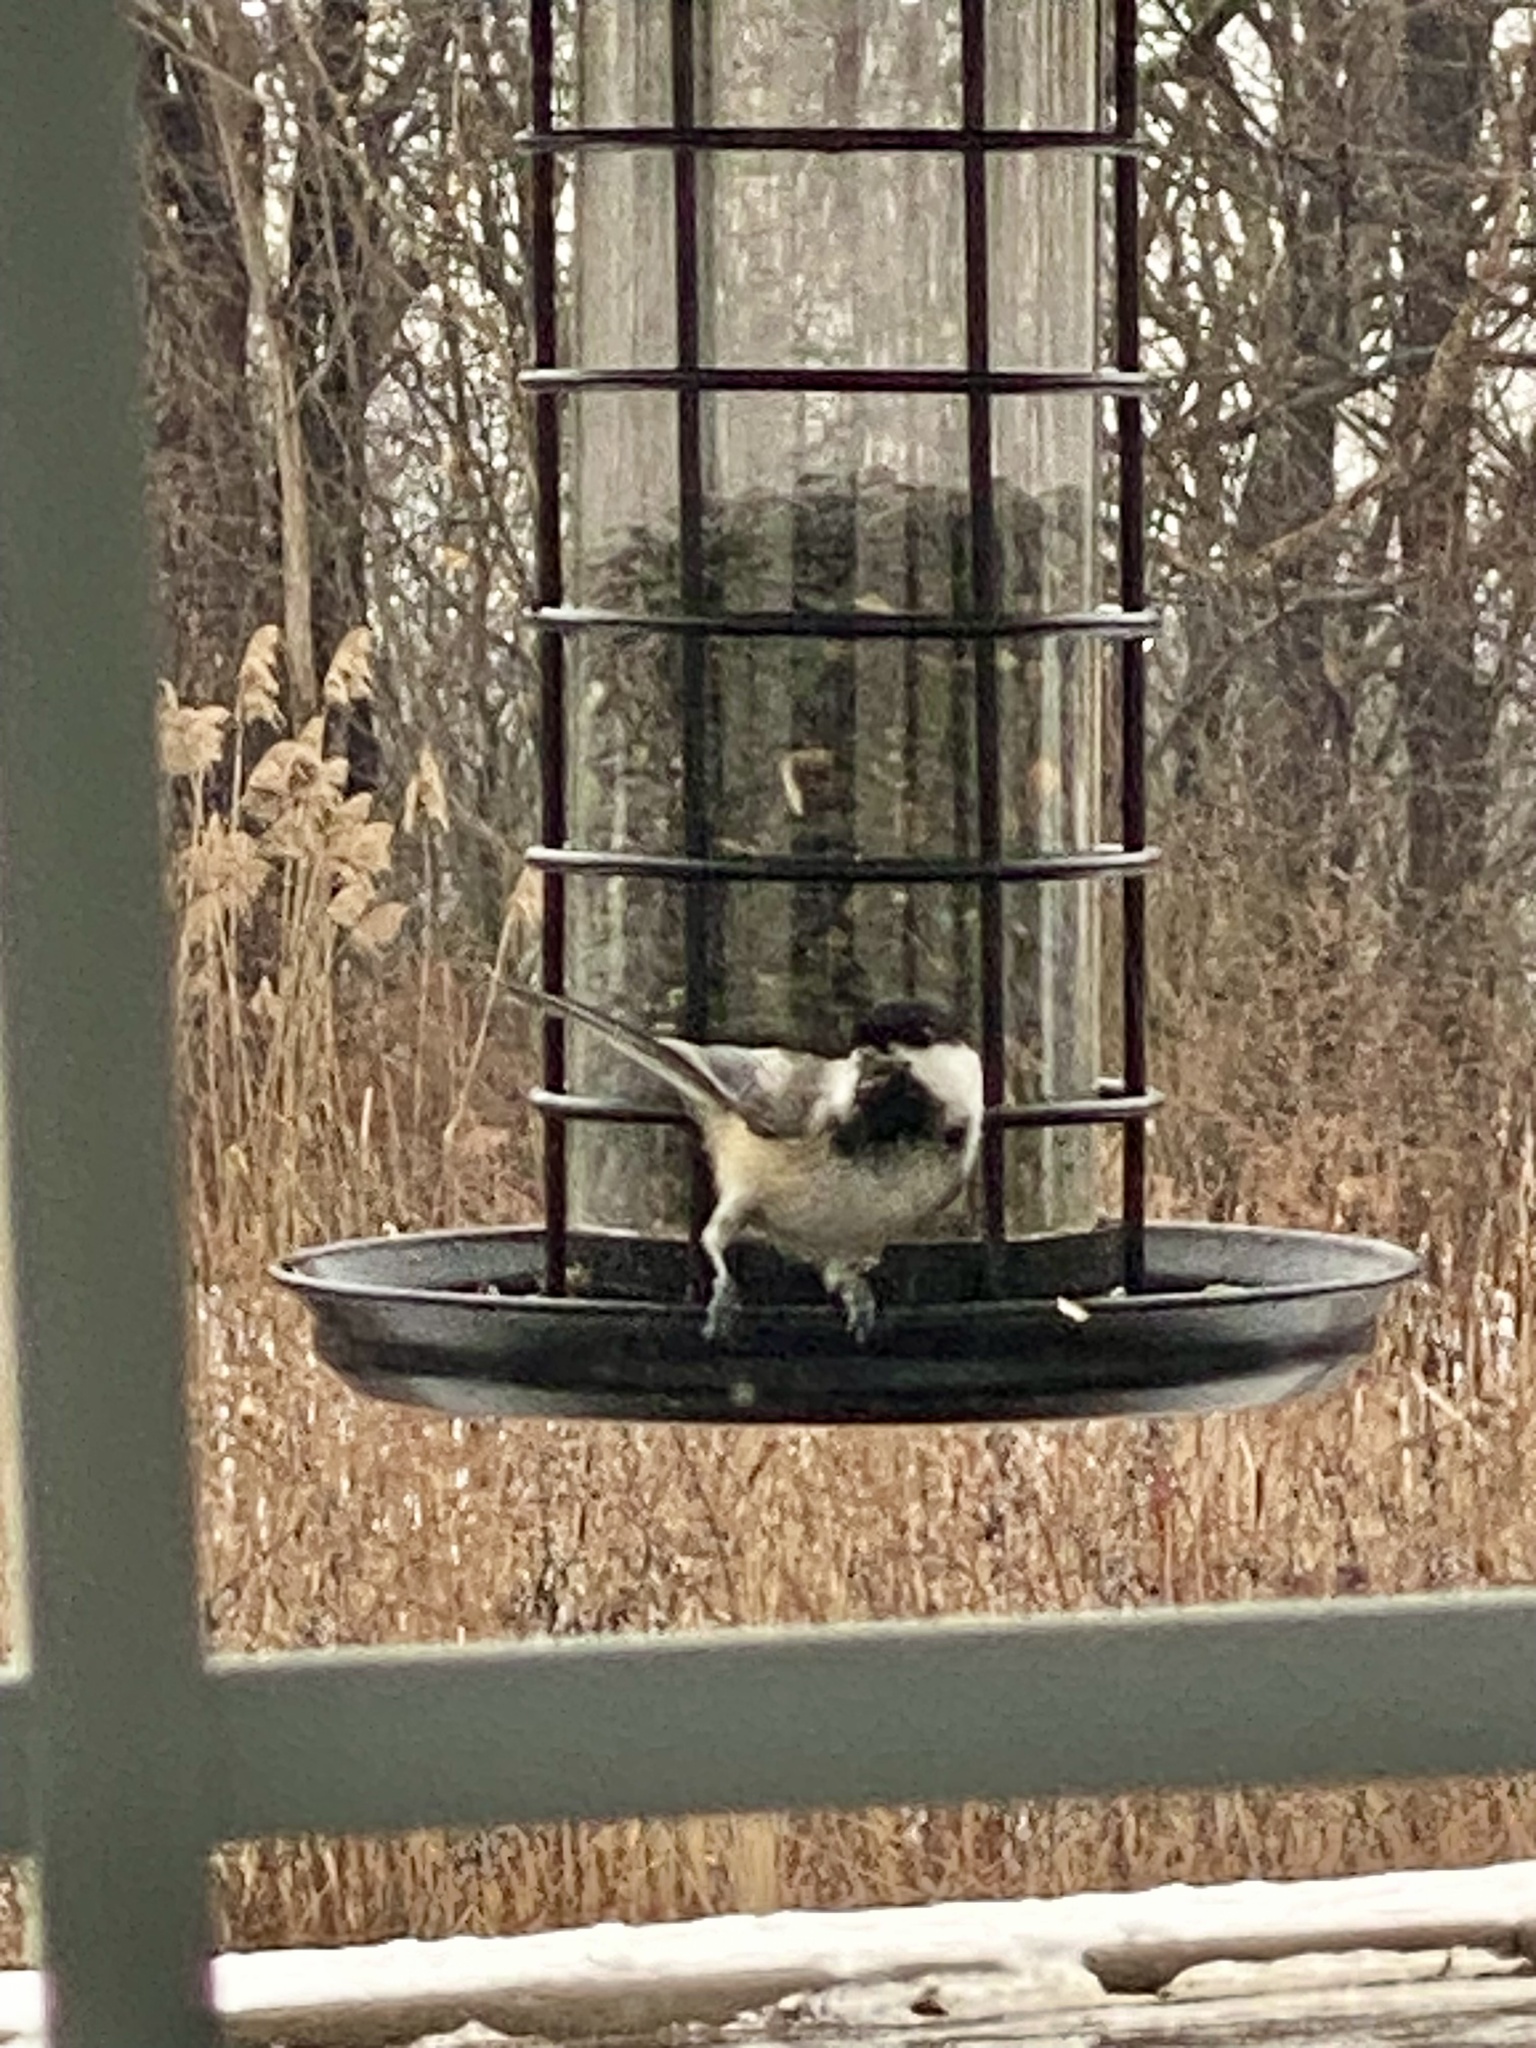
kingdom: Animalia
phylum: Chordata
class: Aves
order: Passeriformes
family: Paridae
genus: Poecile
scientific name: Poecile atricapillus
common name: Black-capped chickadee
